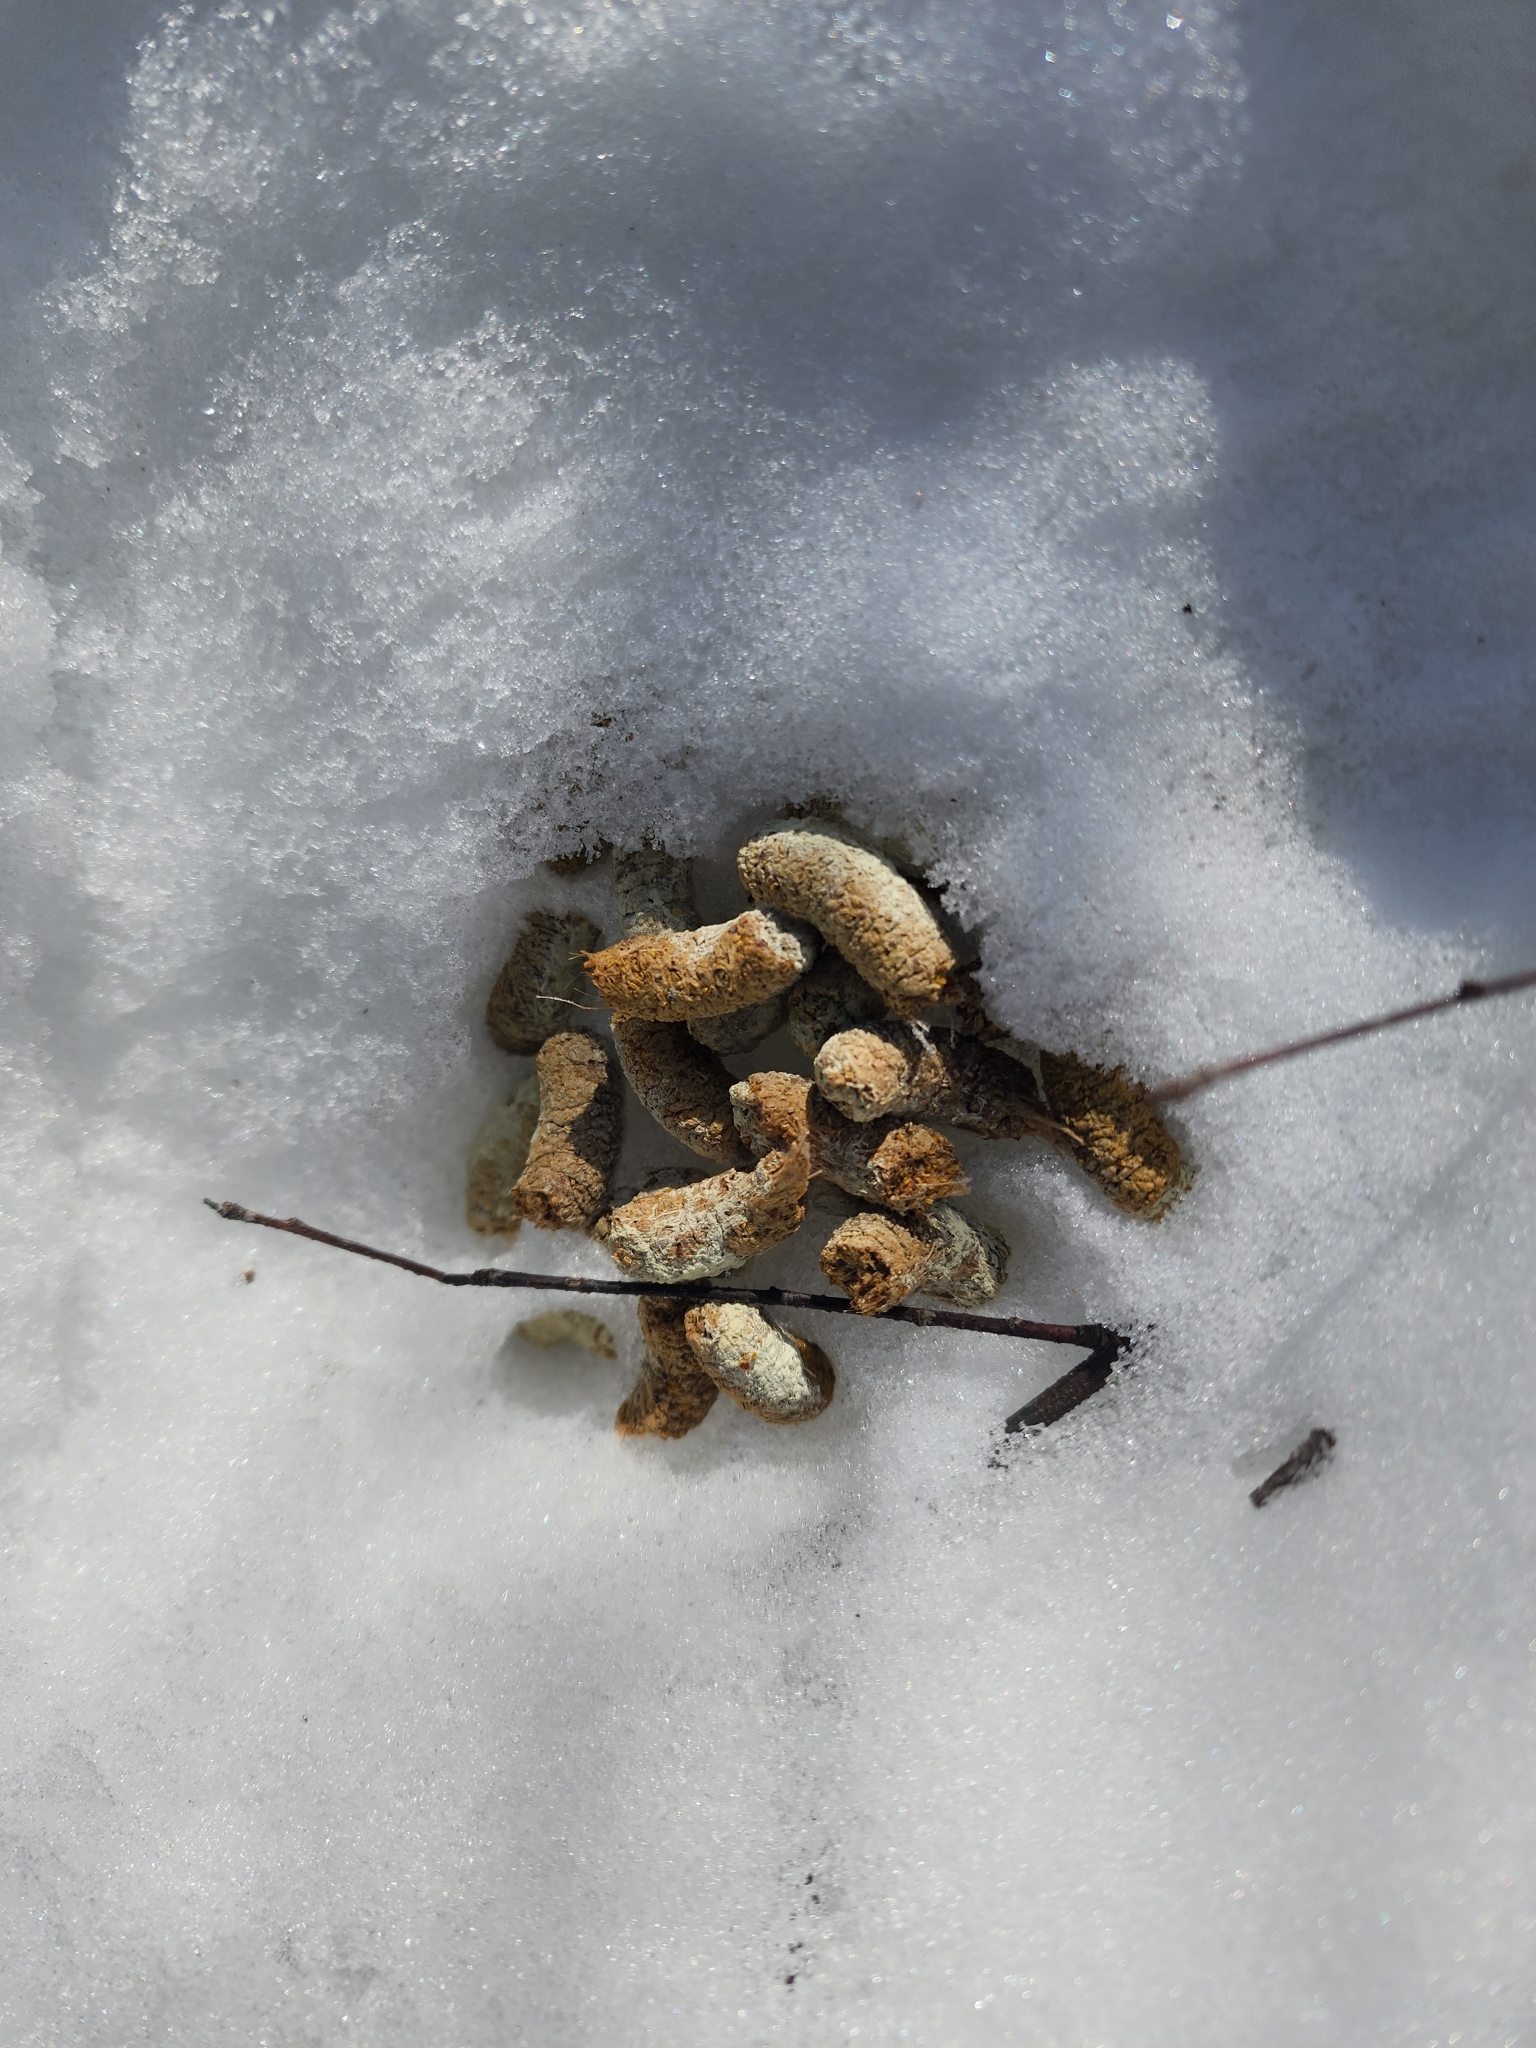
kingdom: Animalia
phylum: Chordata
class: Aves
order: Galliformes
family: Phasianidae
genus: Bonasa
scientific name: Bonasa umbellus
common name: Ruffed grouse
